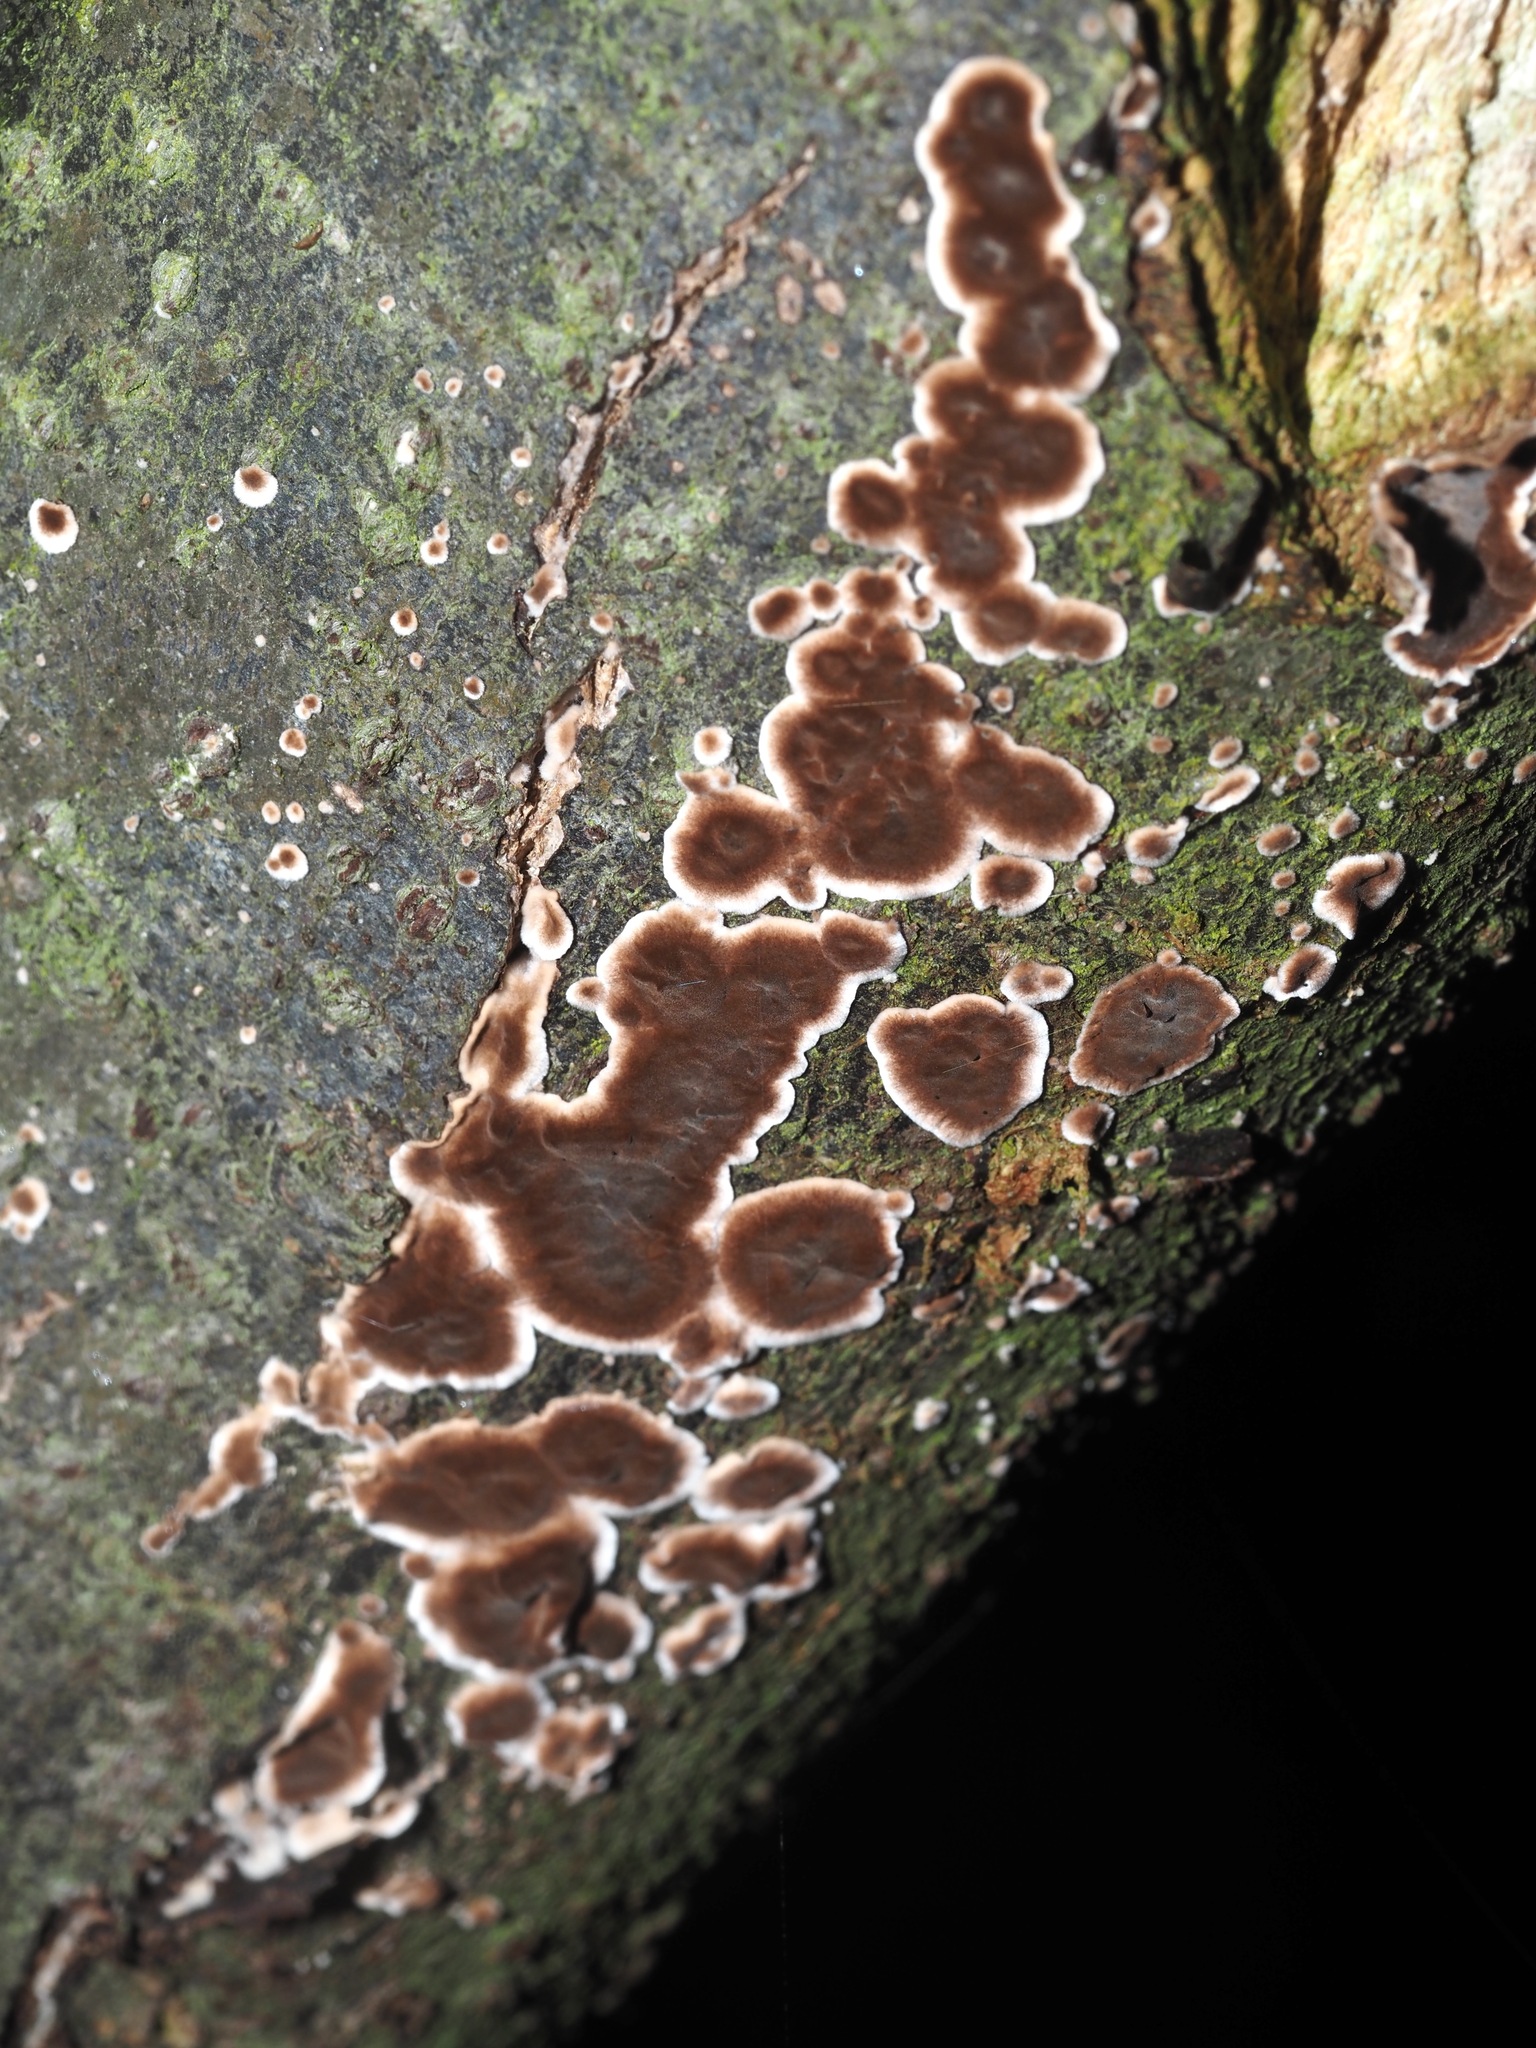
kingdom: Fungi
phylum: Basidiomycota
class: Agaricomycetes
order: Russulales
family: Peniophoraceae
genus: Peniophora
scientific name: Peniophora albobadia
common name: Giraffe spots
